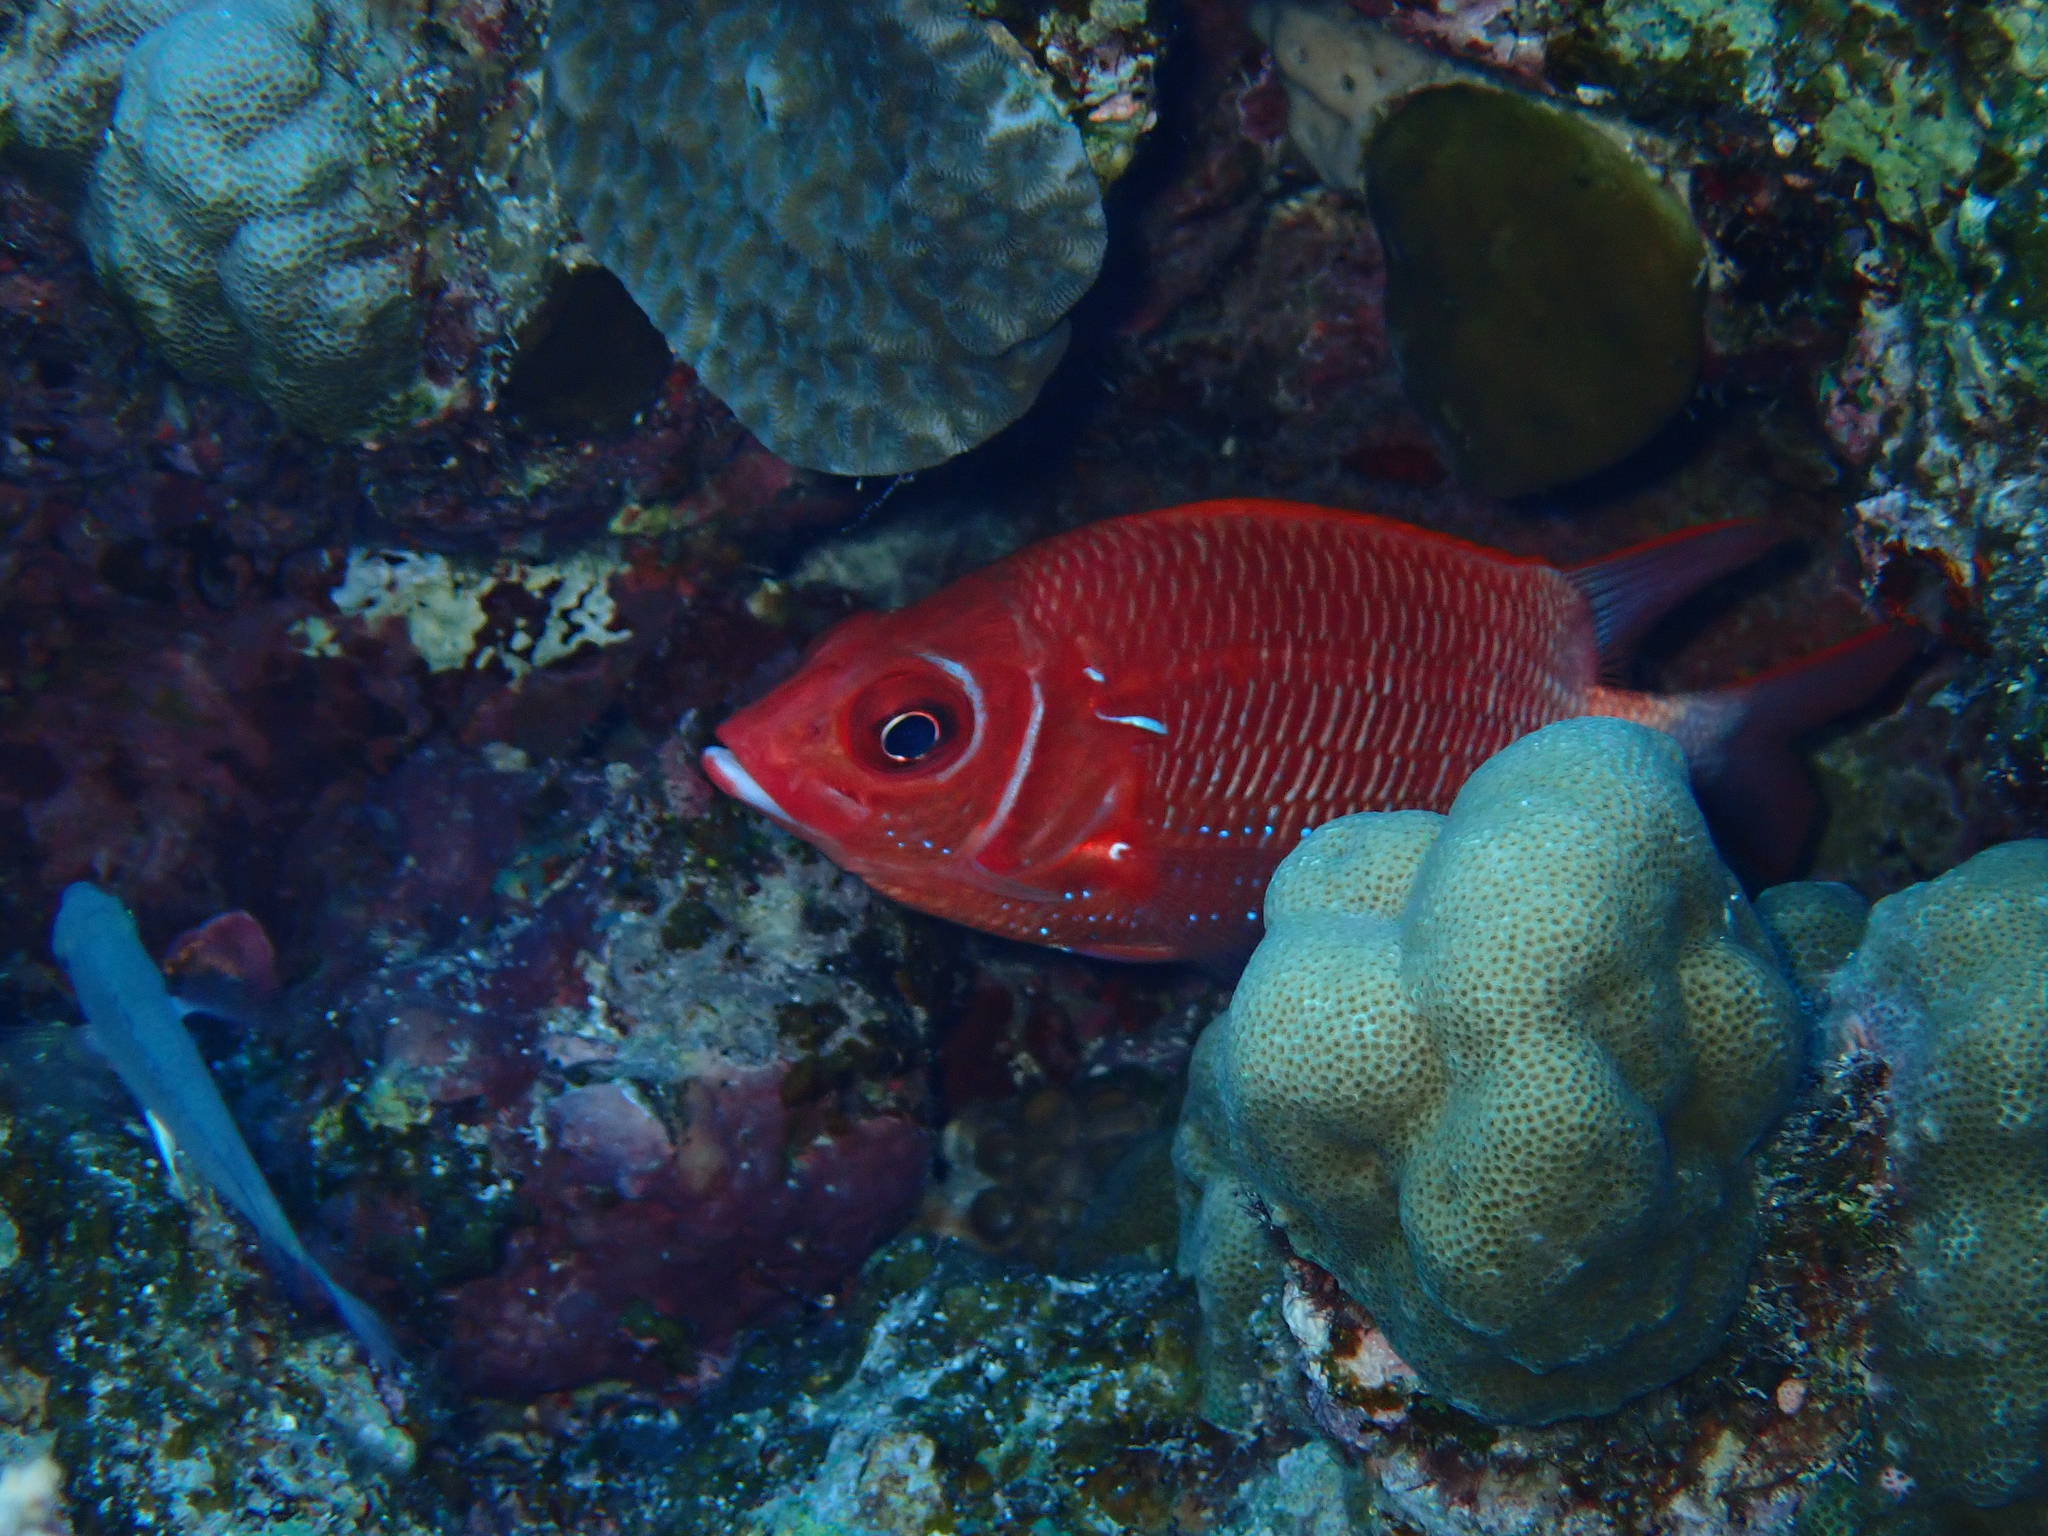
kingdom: Animalia
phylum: Chordata
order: Beryciformes
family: Holocentridae
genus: Sargocentron
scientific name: Sargocentron caudimaculatum
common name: Fanfin soldier
